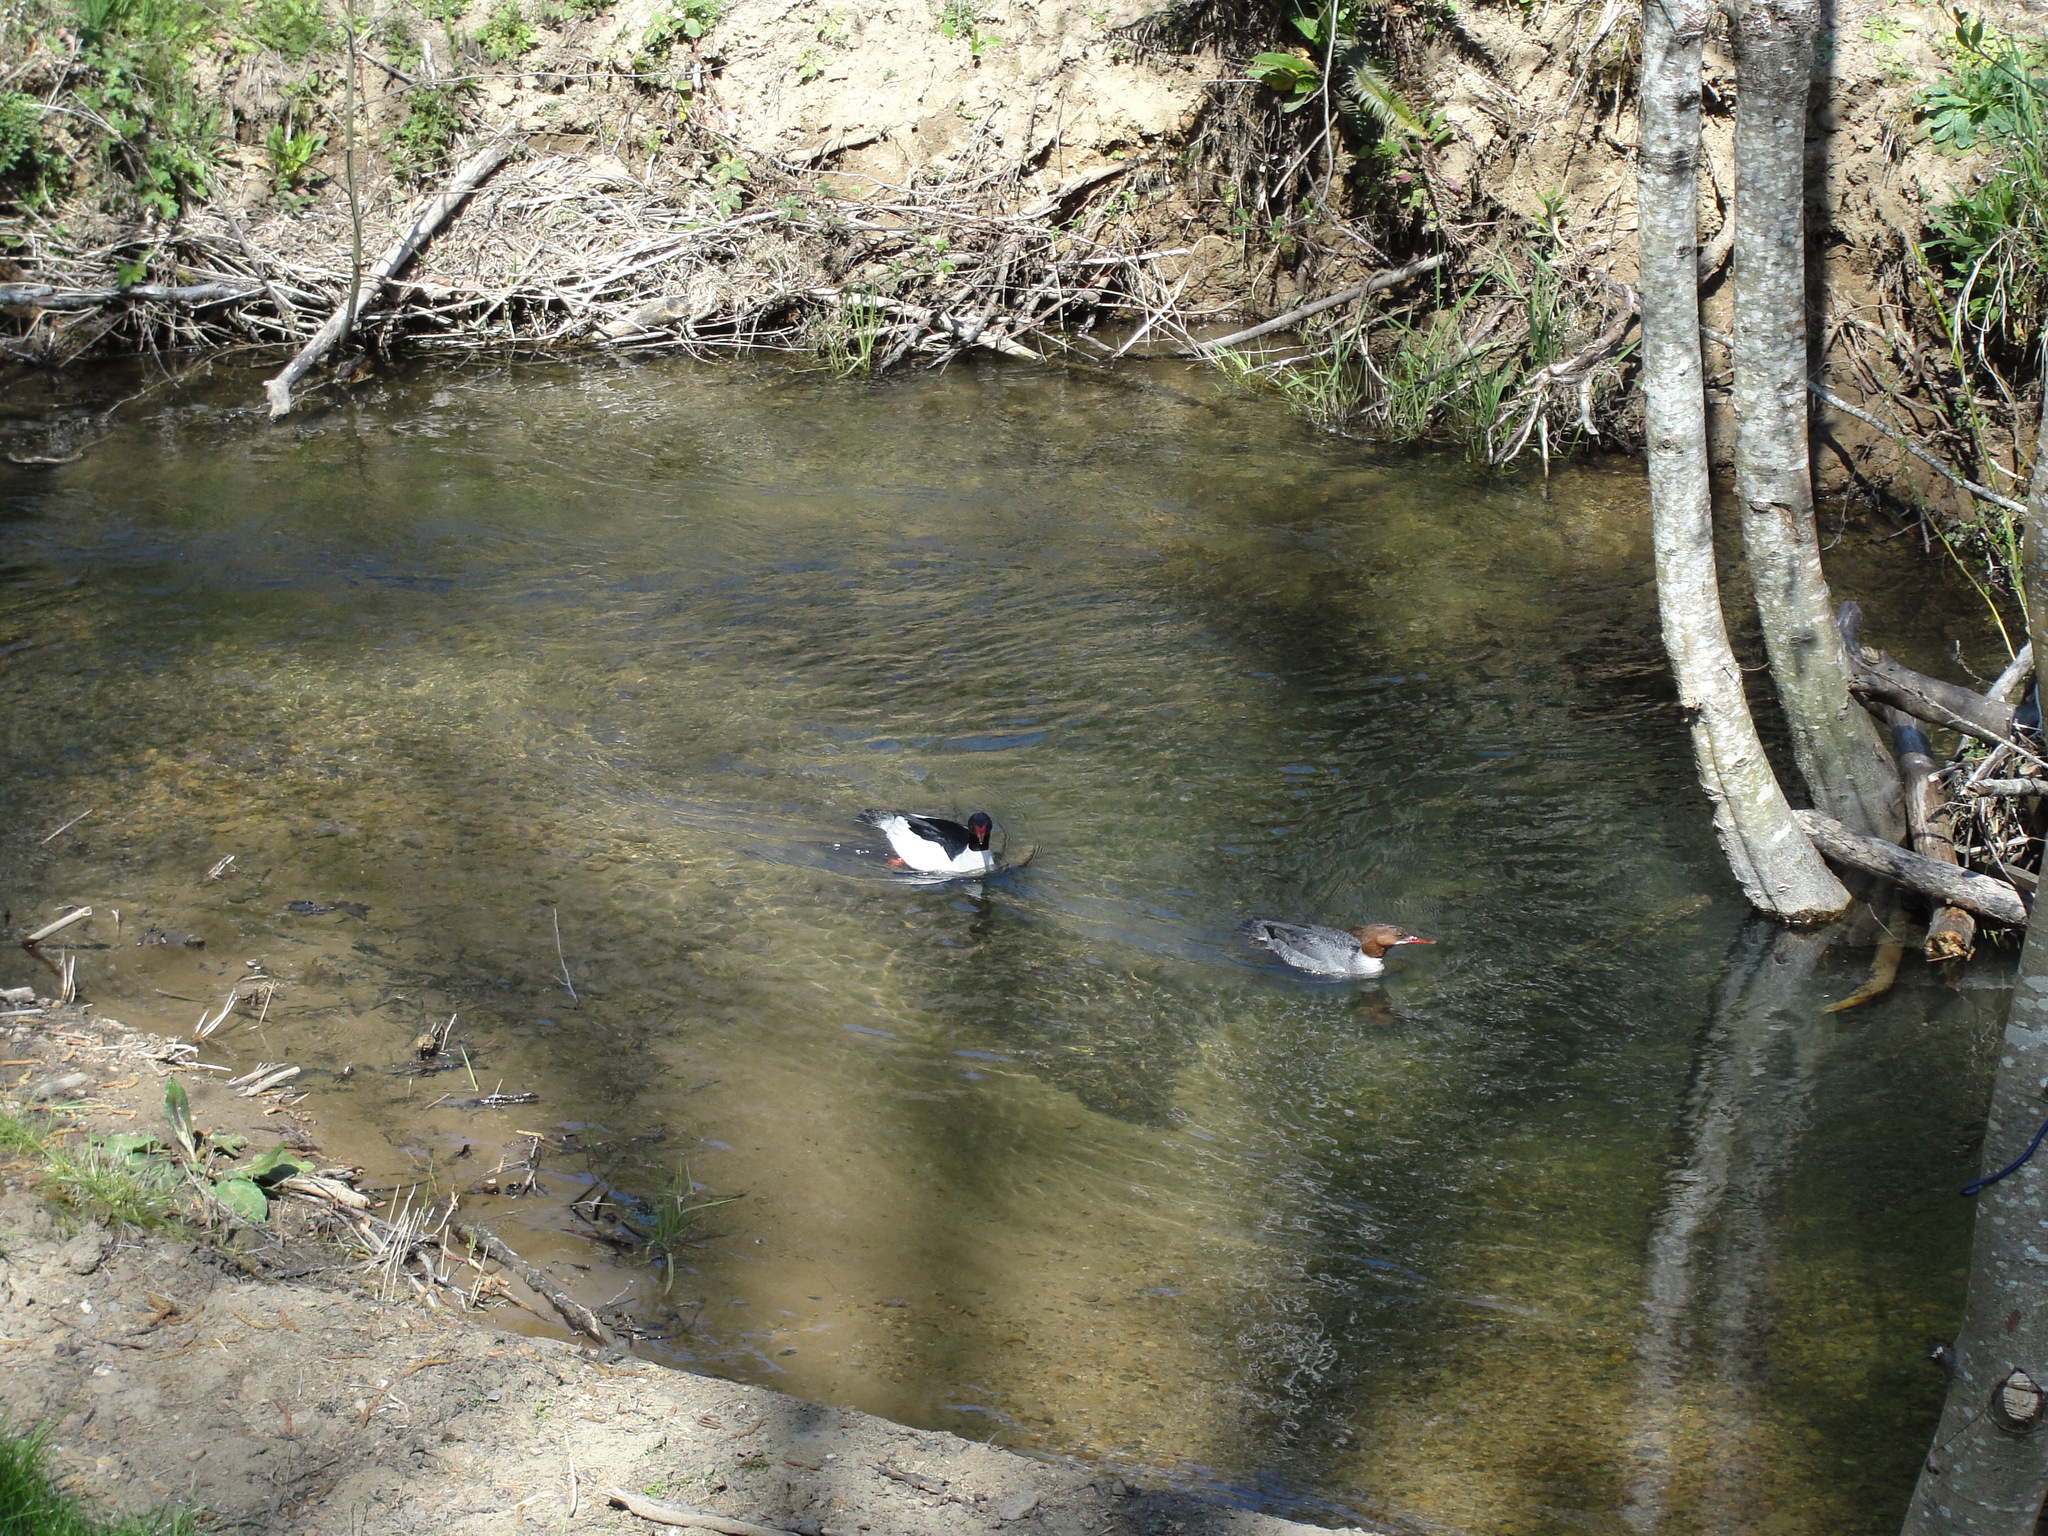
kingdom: Animalia
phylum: Chordata
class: Aves
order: Anseriformes
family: Anatidae
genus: Mergus
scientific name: Mergus merganser
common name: Common merganser
